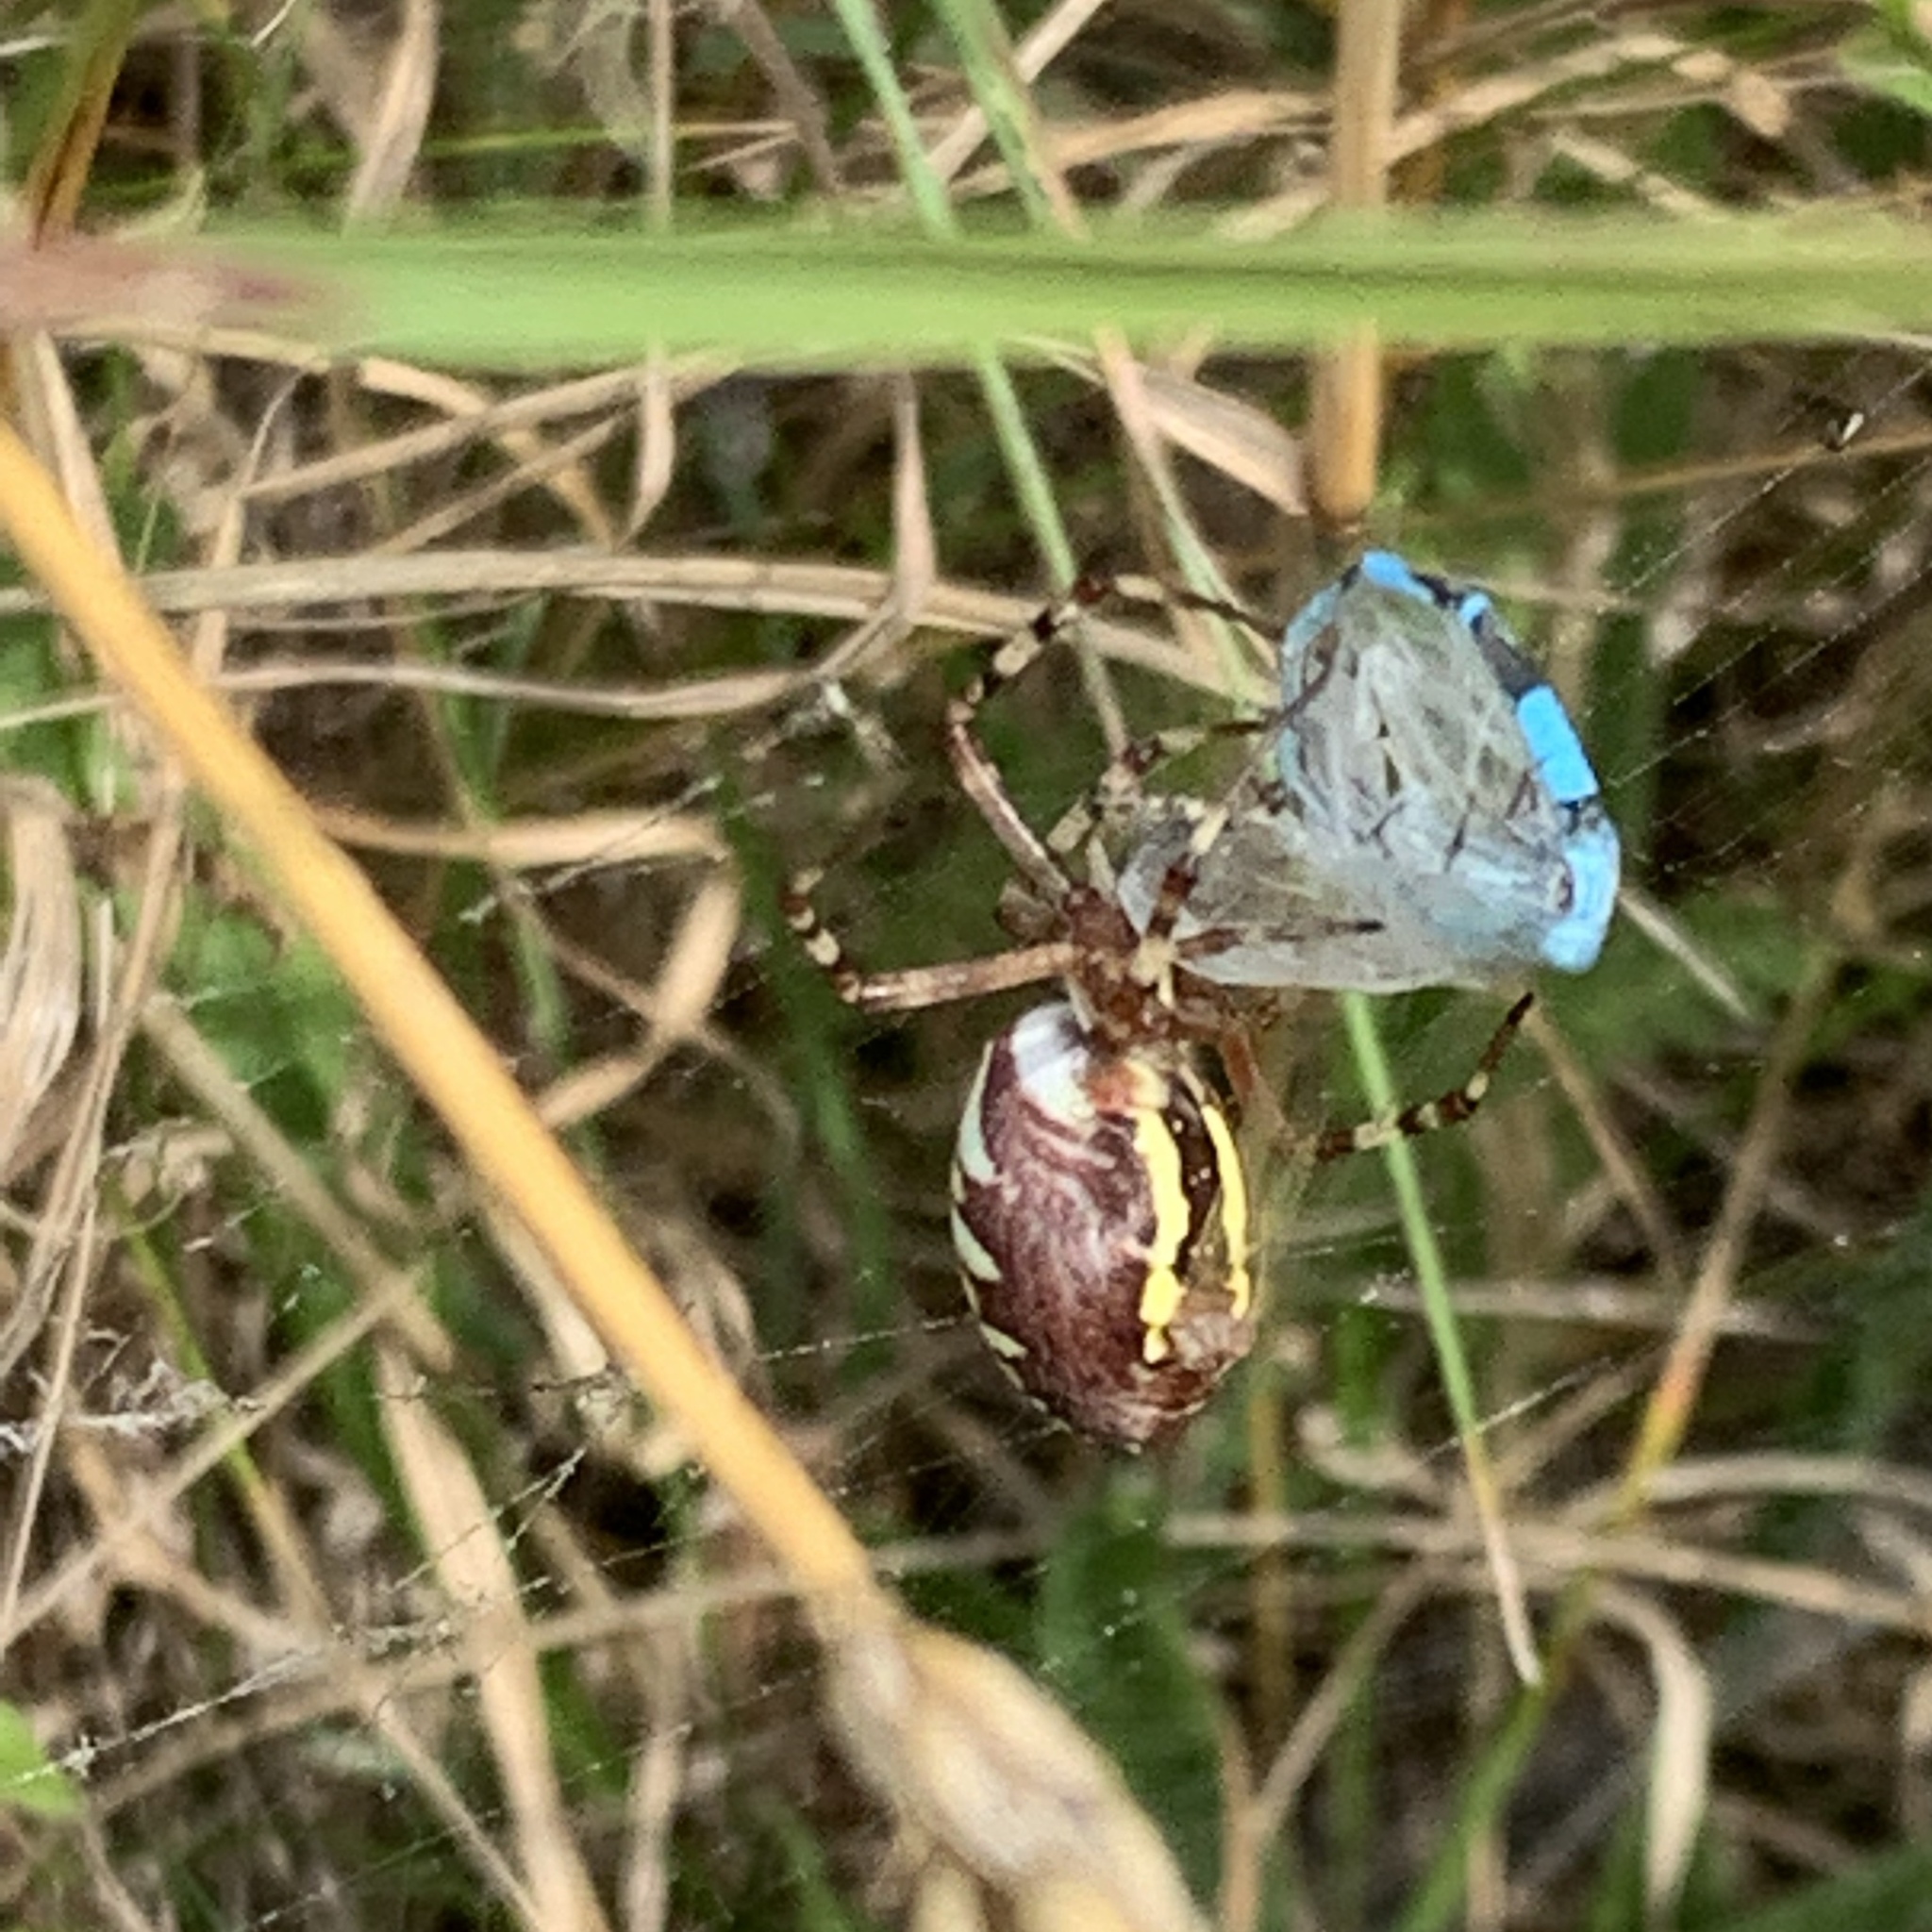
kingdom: Animalia
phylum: Arthropoda
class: Arachnida
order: Araneae
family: Araneidae
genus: Argiope
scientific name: Argiope bruennichi
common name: Wasp spider
